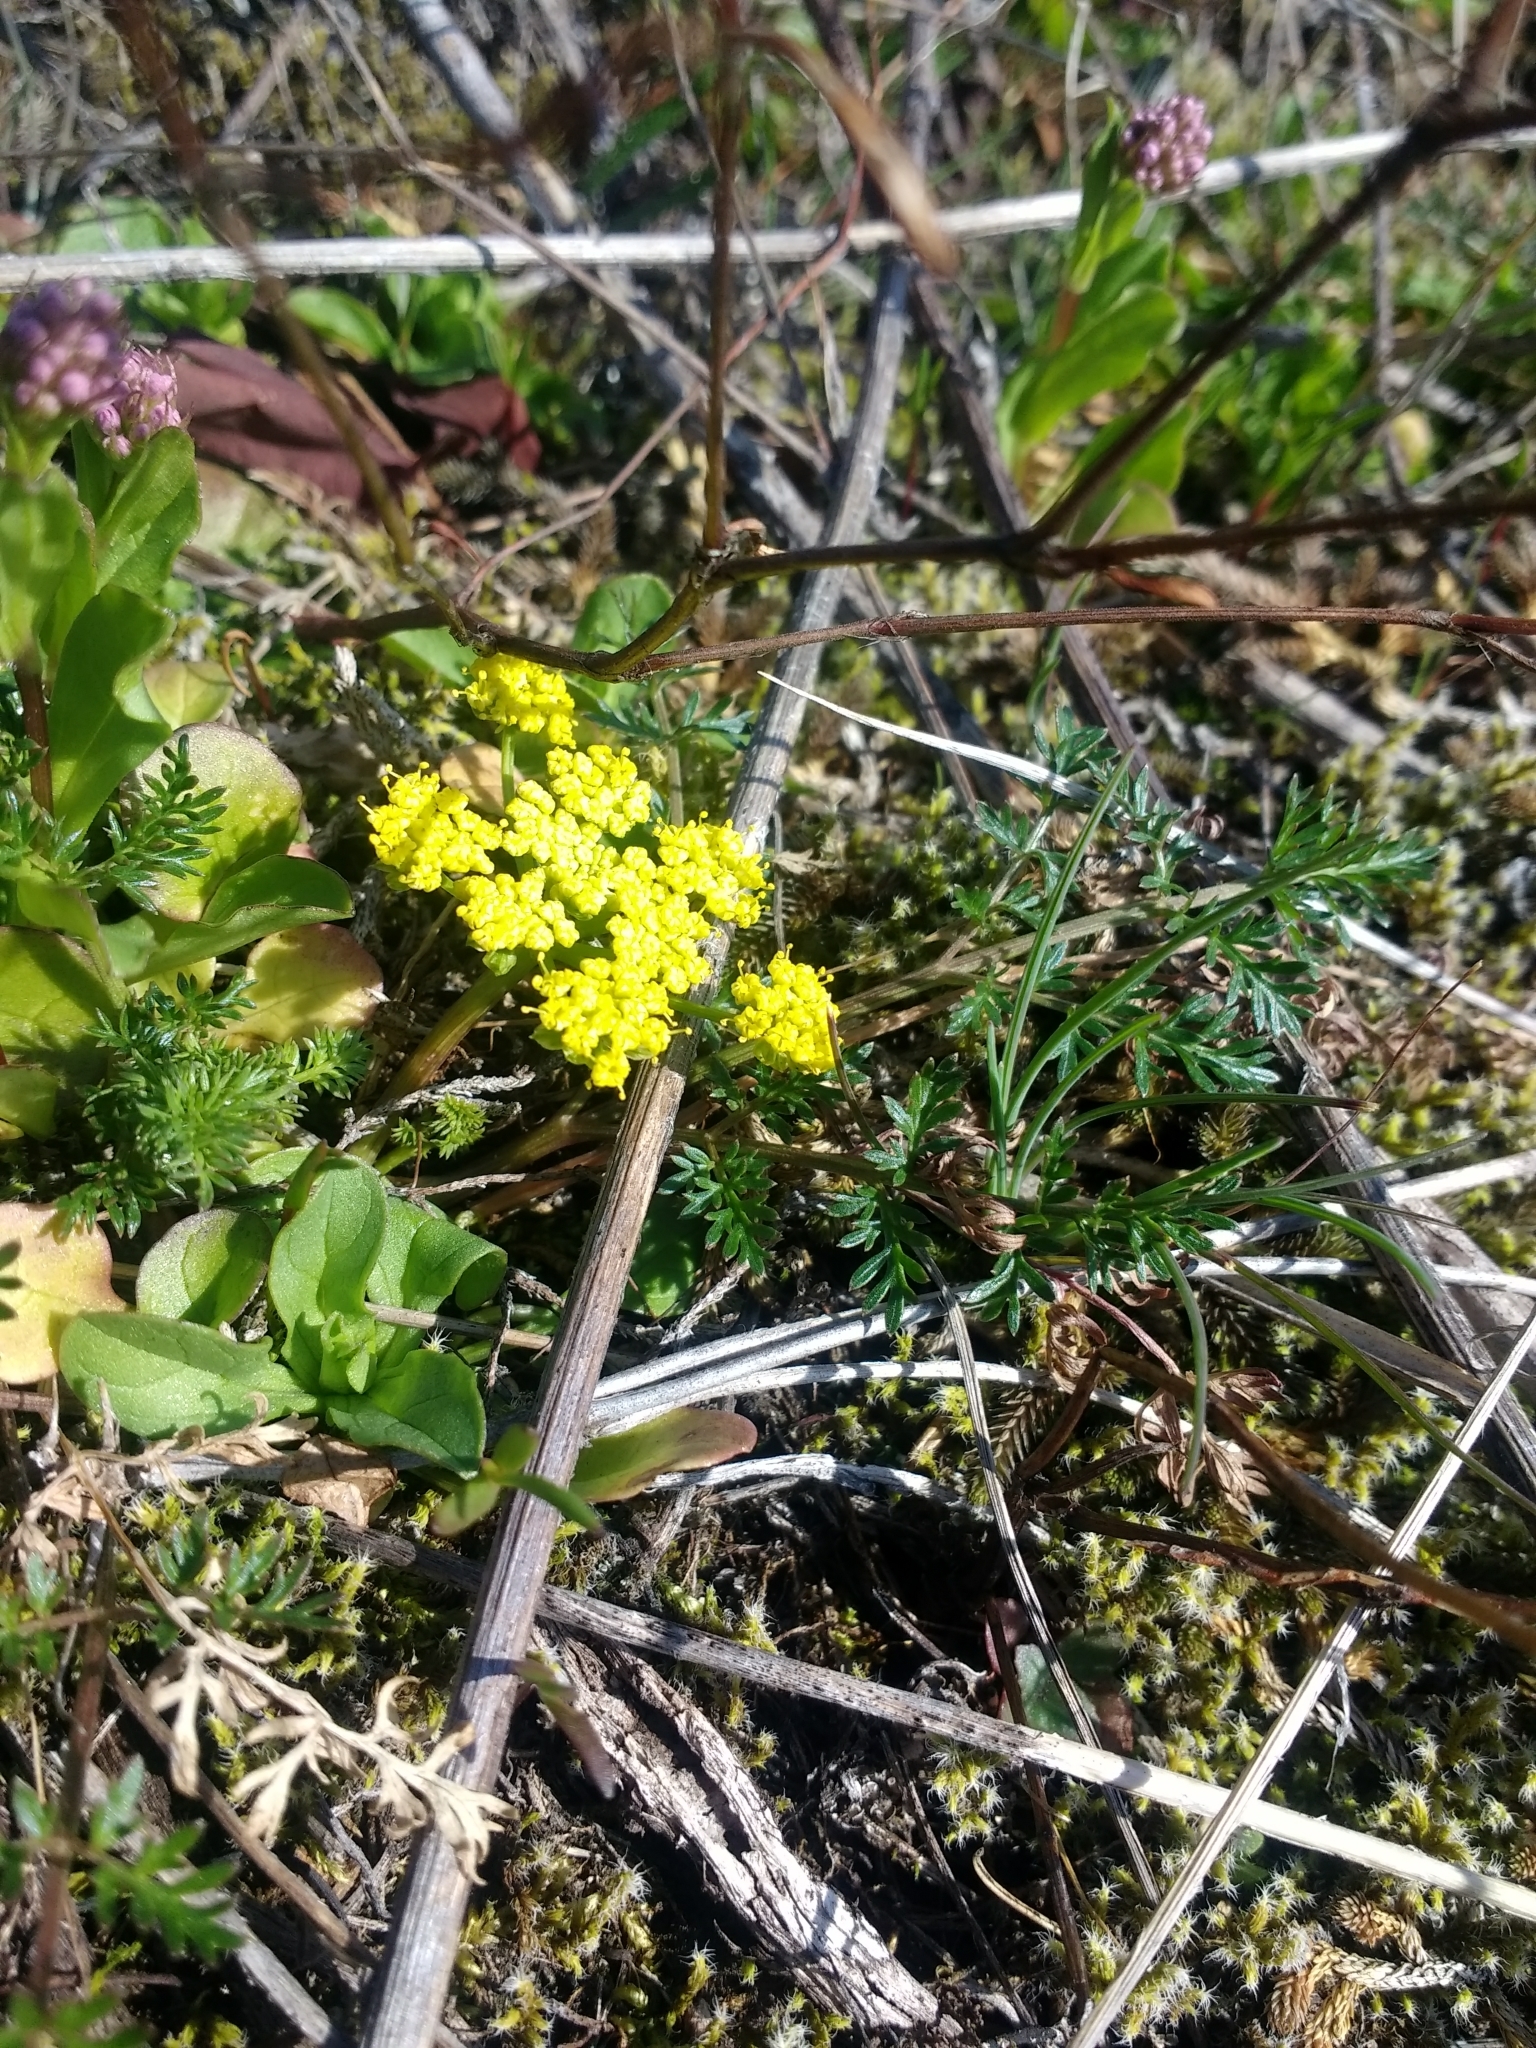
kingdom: Plantae
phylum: Tracheophyta
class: Magnoliopsida
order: Apiales
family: Apiaceae
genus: Lomatium
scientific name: Lomatium utriculatum
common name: Fine-leaf desert-parsley
